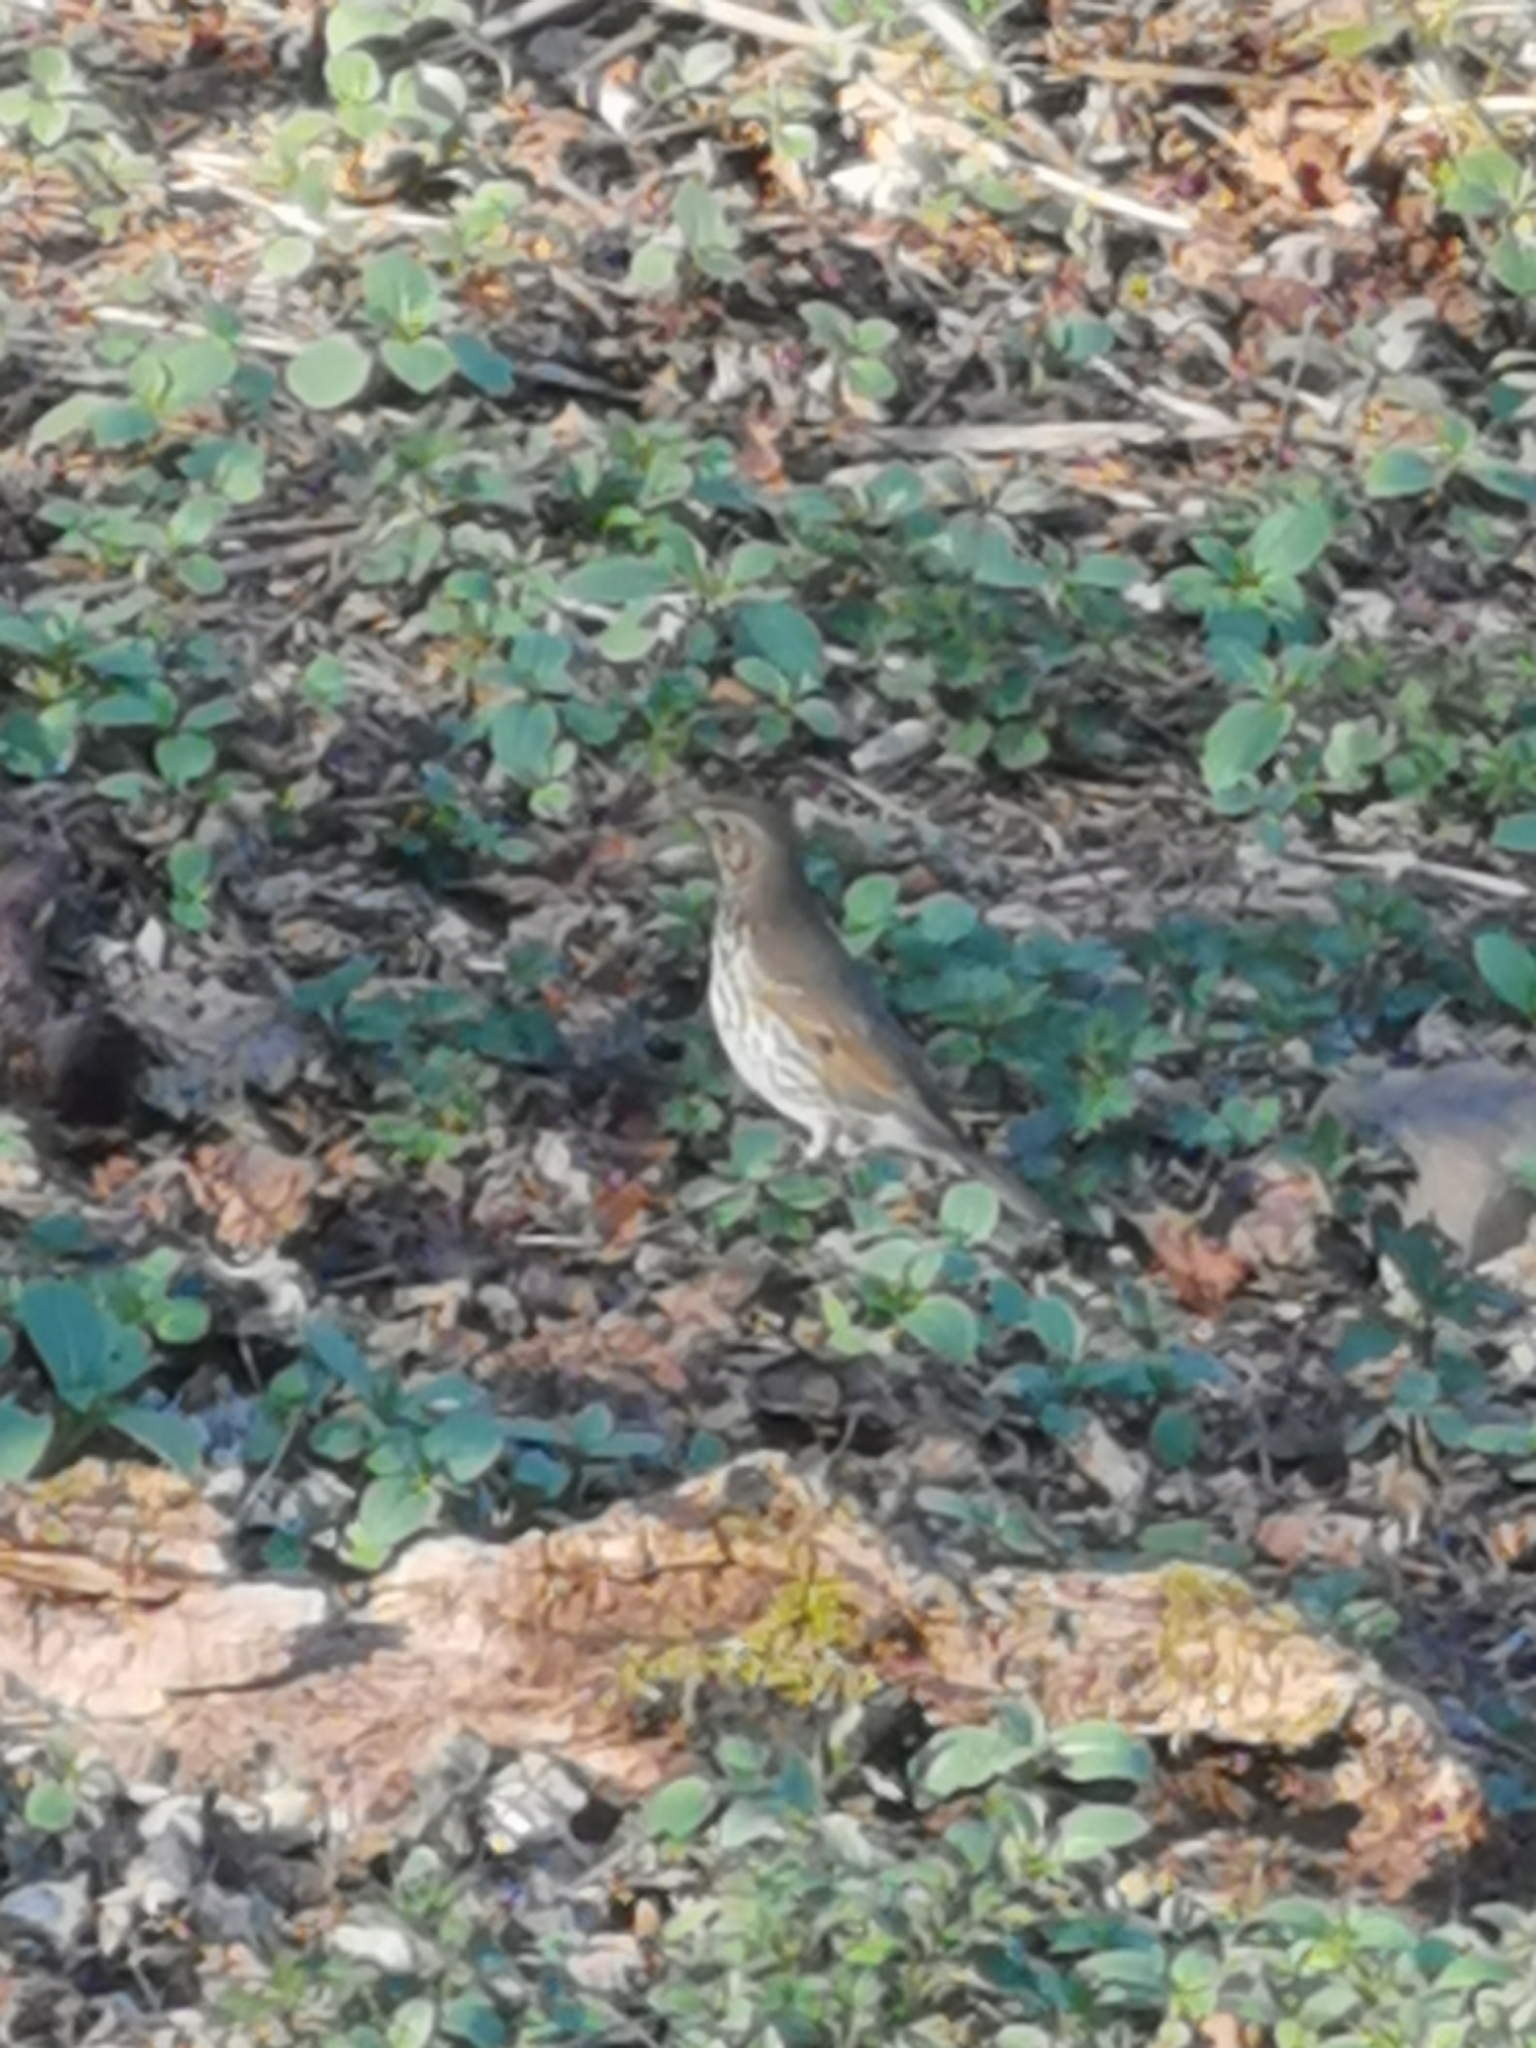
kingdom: Animalia
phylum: Chordata
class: Aves
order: Passeriformes
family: Turdidae
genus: Turdus
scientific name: Turdus philomelos
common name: Song thrush
